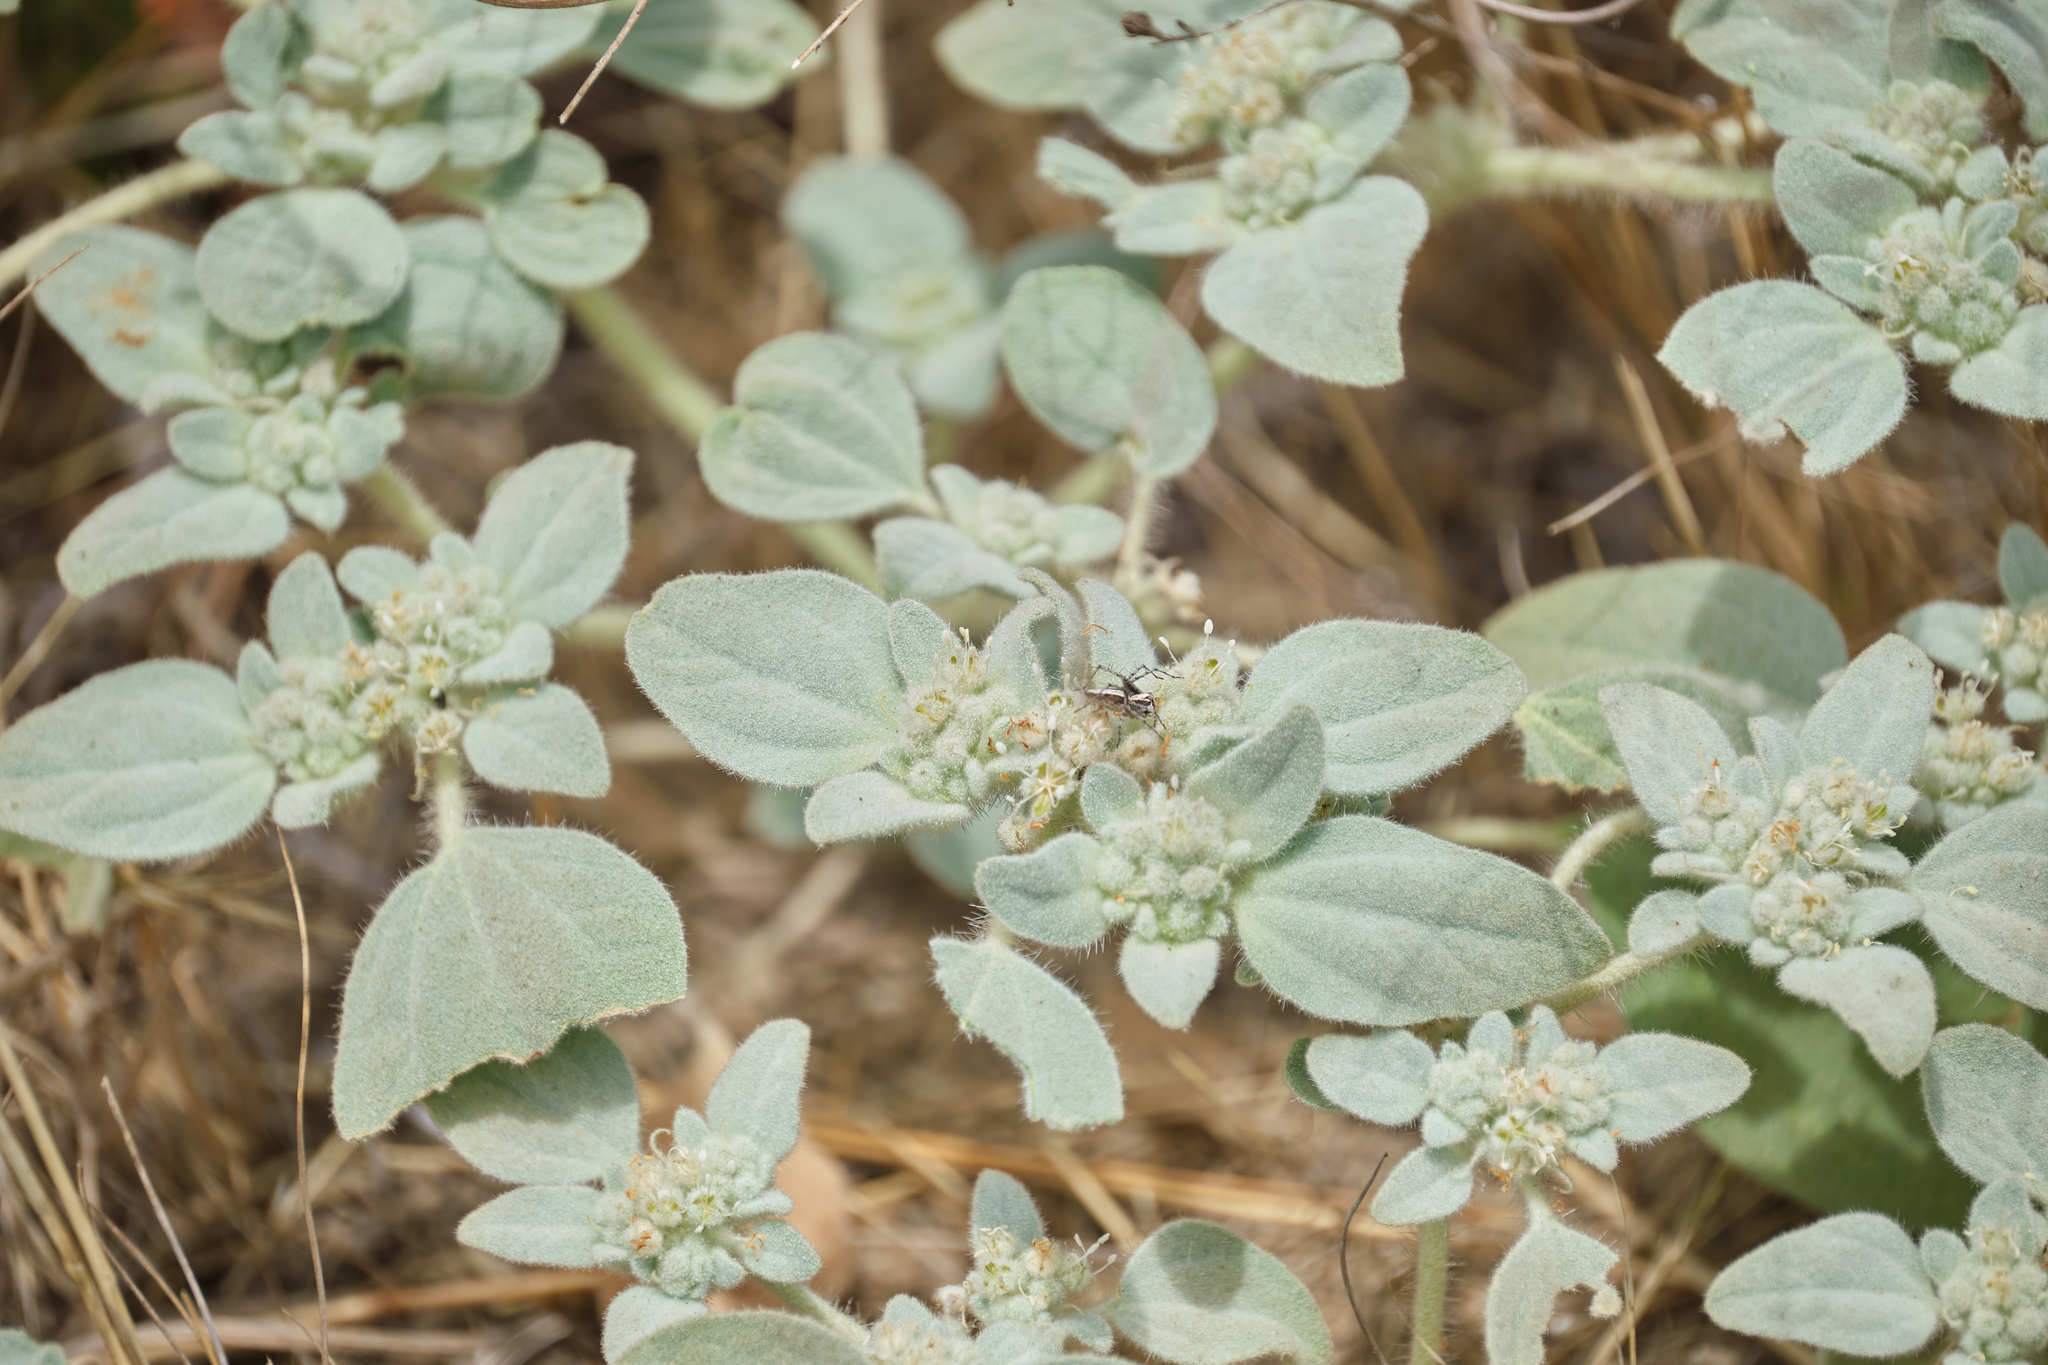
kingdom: Plantae
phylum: Tracheophyta
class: Magnoliopsida
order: Malpighiales
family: Euphorbiaceae
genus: Croton
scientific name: Croton setiger
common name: Dove weed
